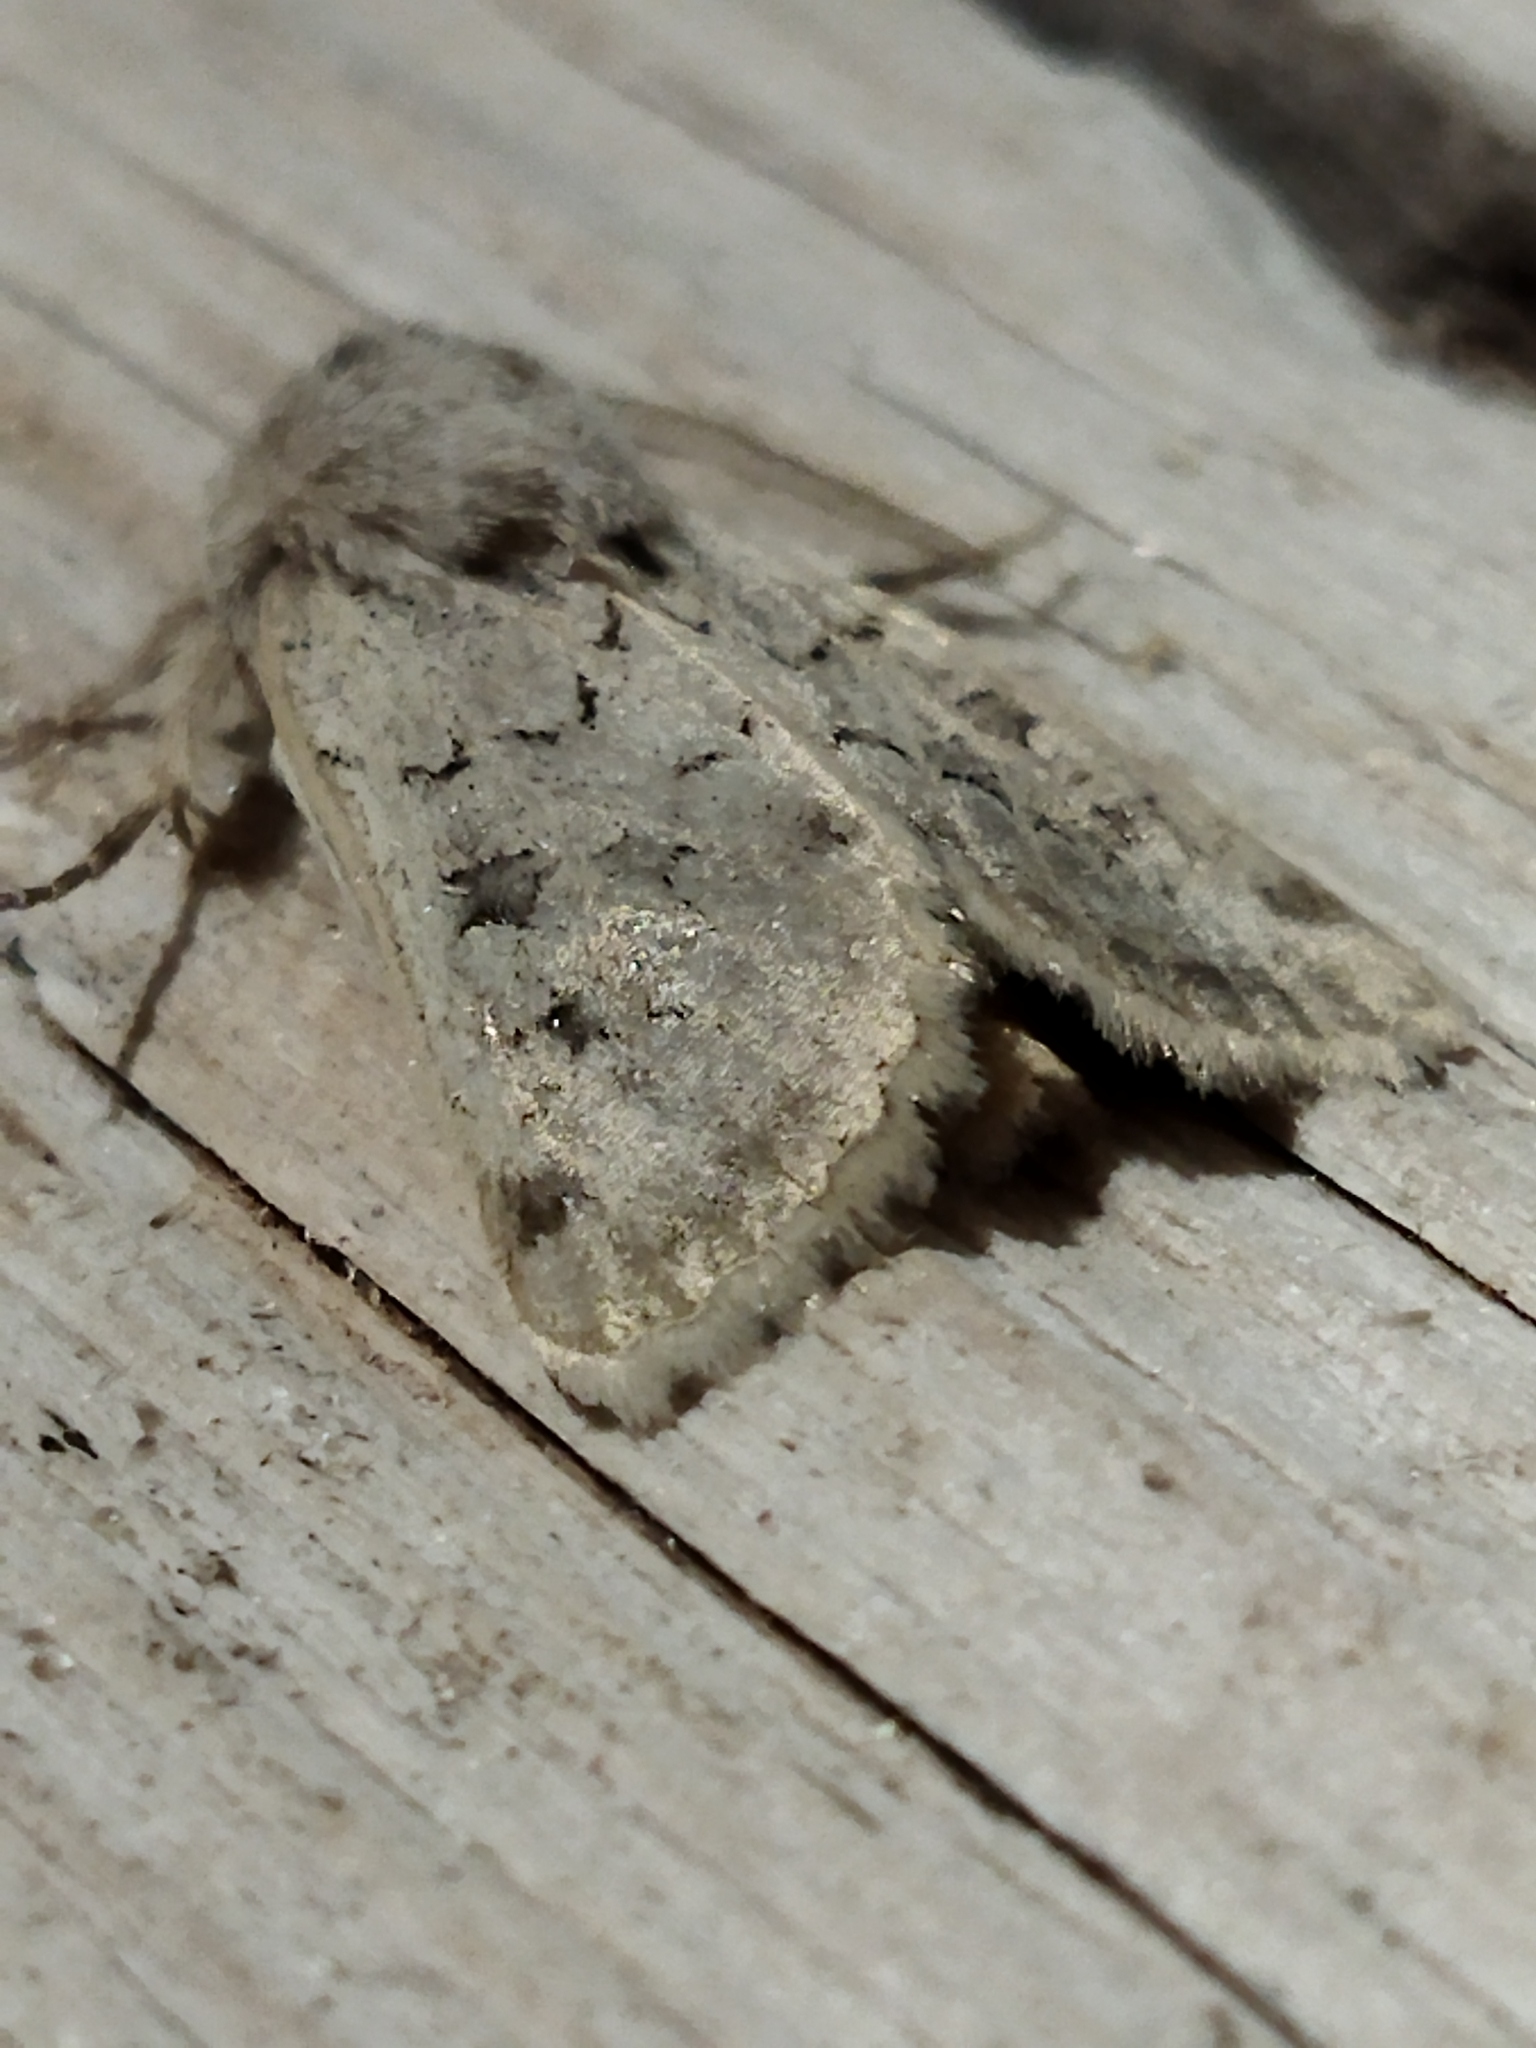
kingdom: Animalia
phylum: Arthropoda
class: Insecta
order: Lepidoptera
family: Noctuidae
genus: Episema
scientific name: Episema lederi
